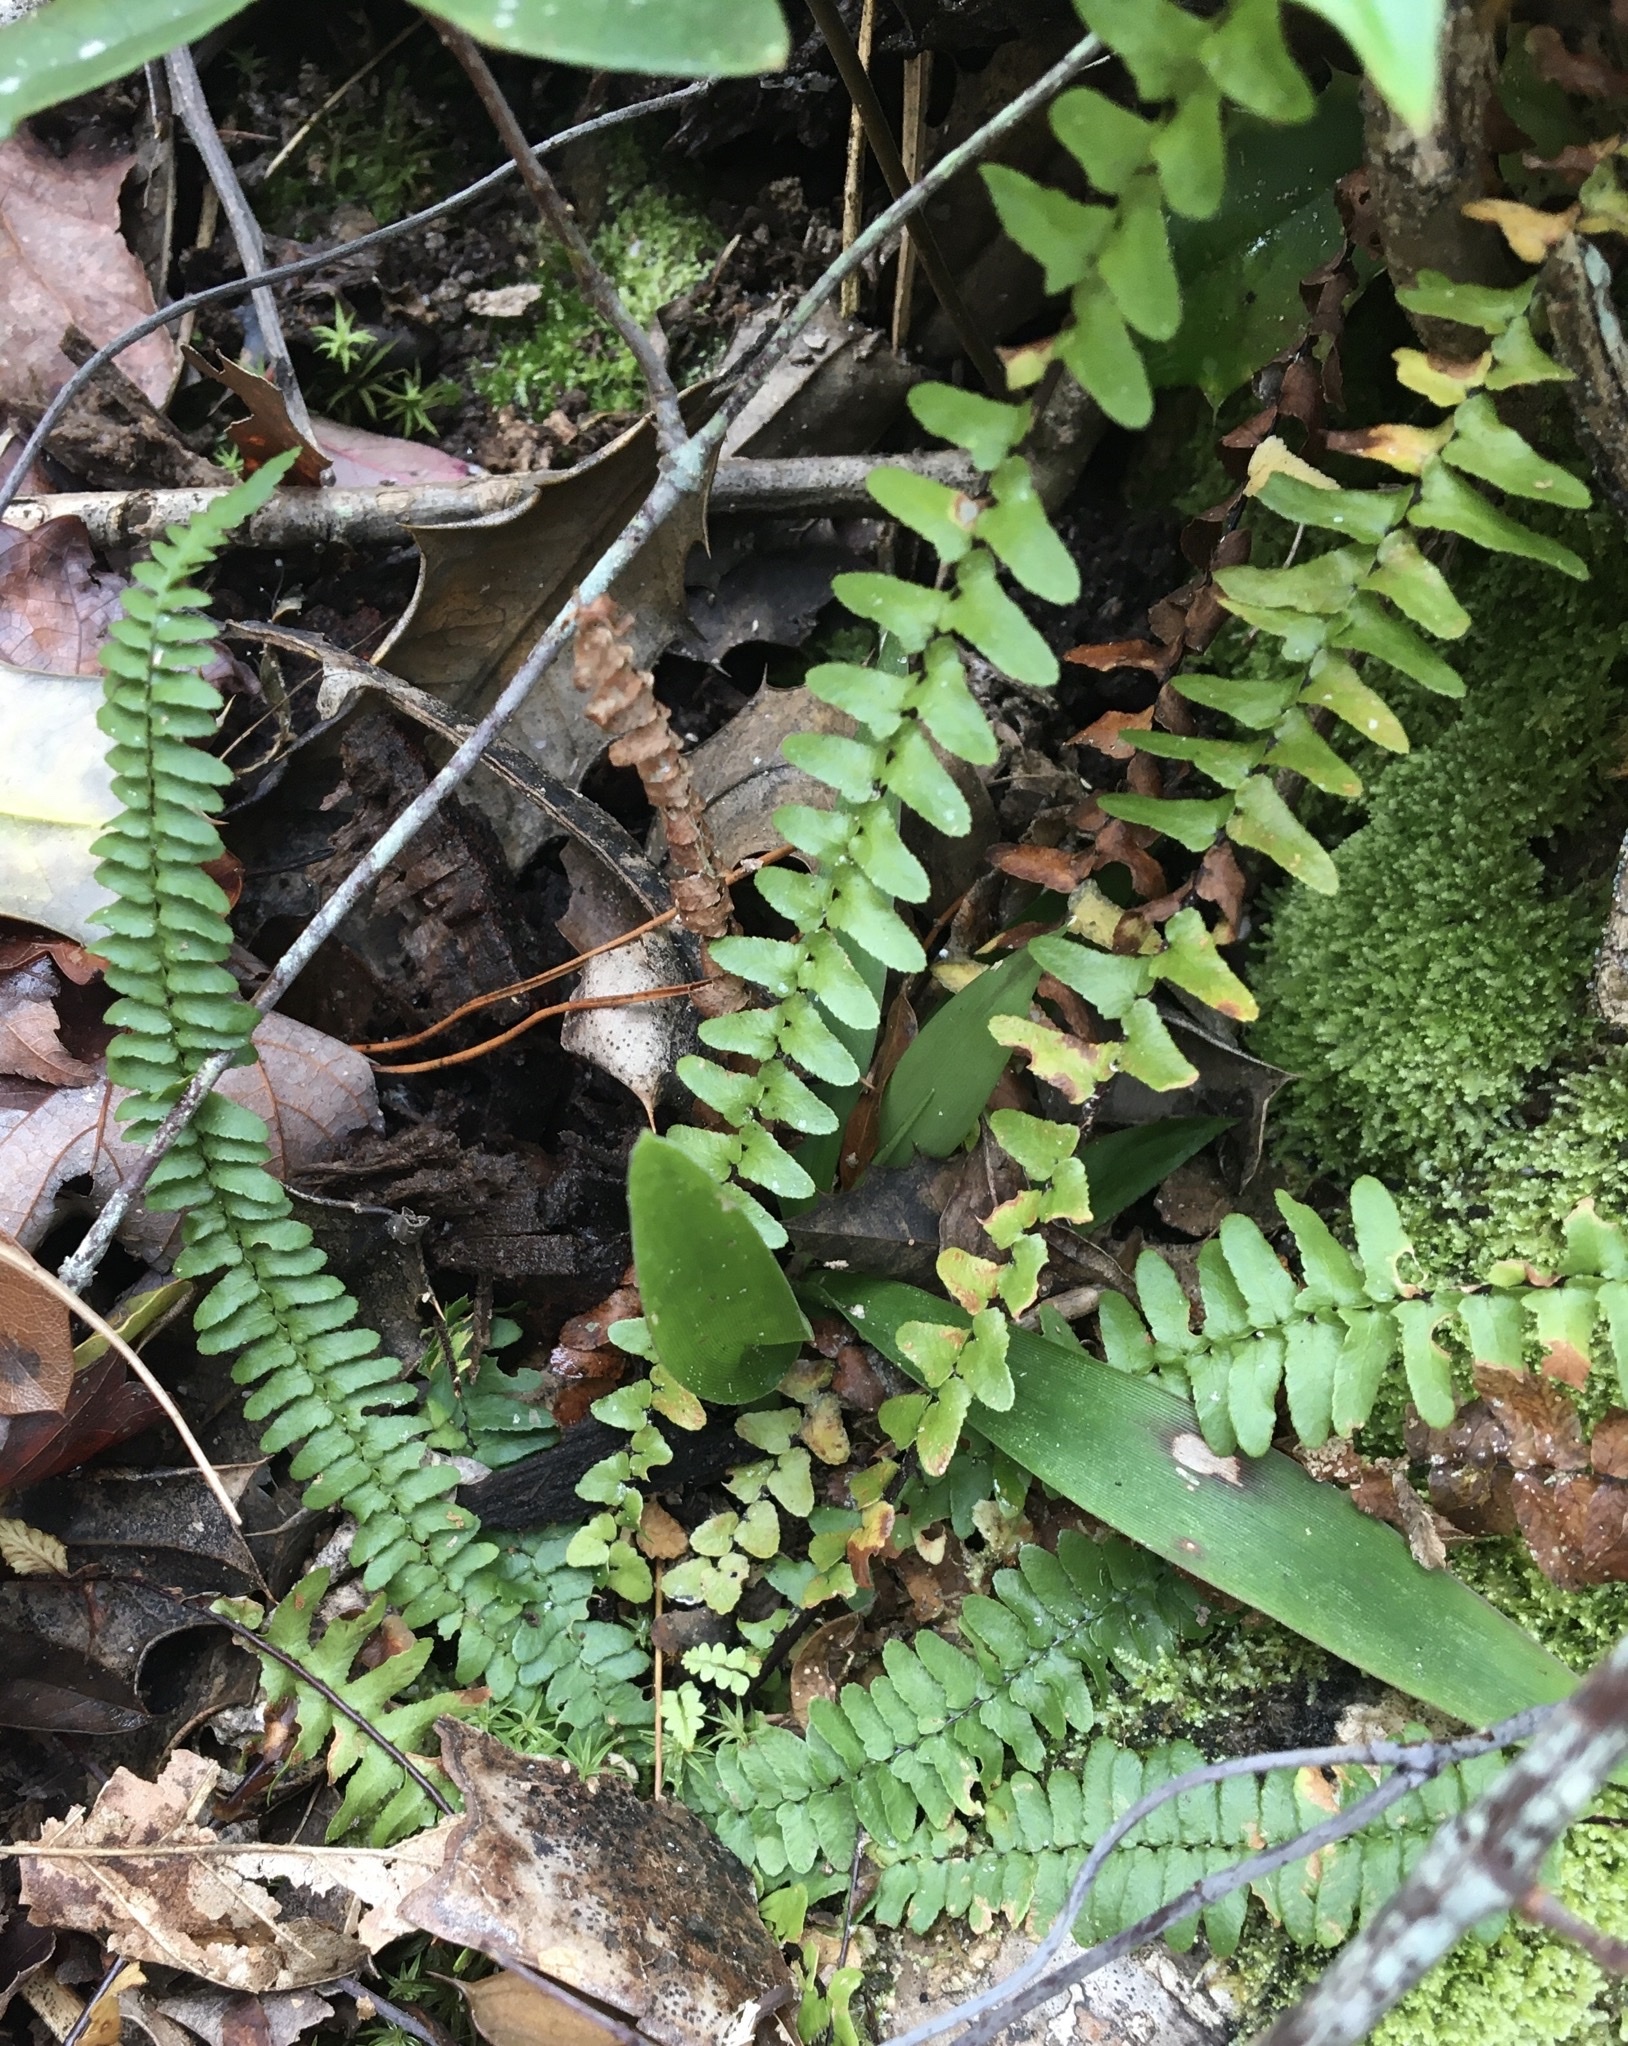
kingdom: Plantae
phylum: Tracheophyta
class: Polypodiopsida
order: Polypodiales
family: Aspleniaceae
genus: Asplenium
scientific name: Asplenium platyneuron
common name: Ebony spleenwort
